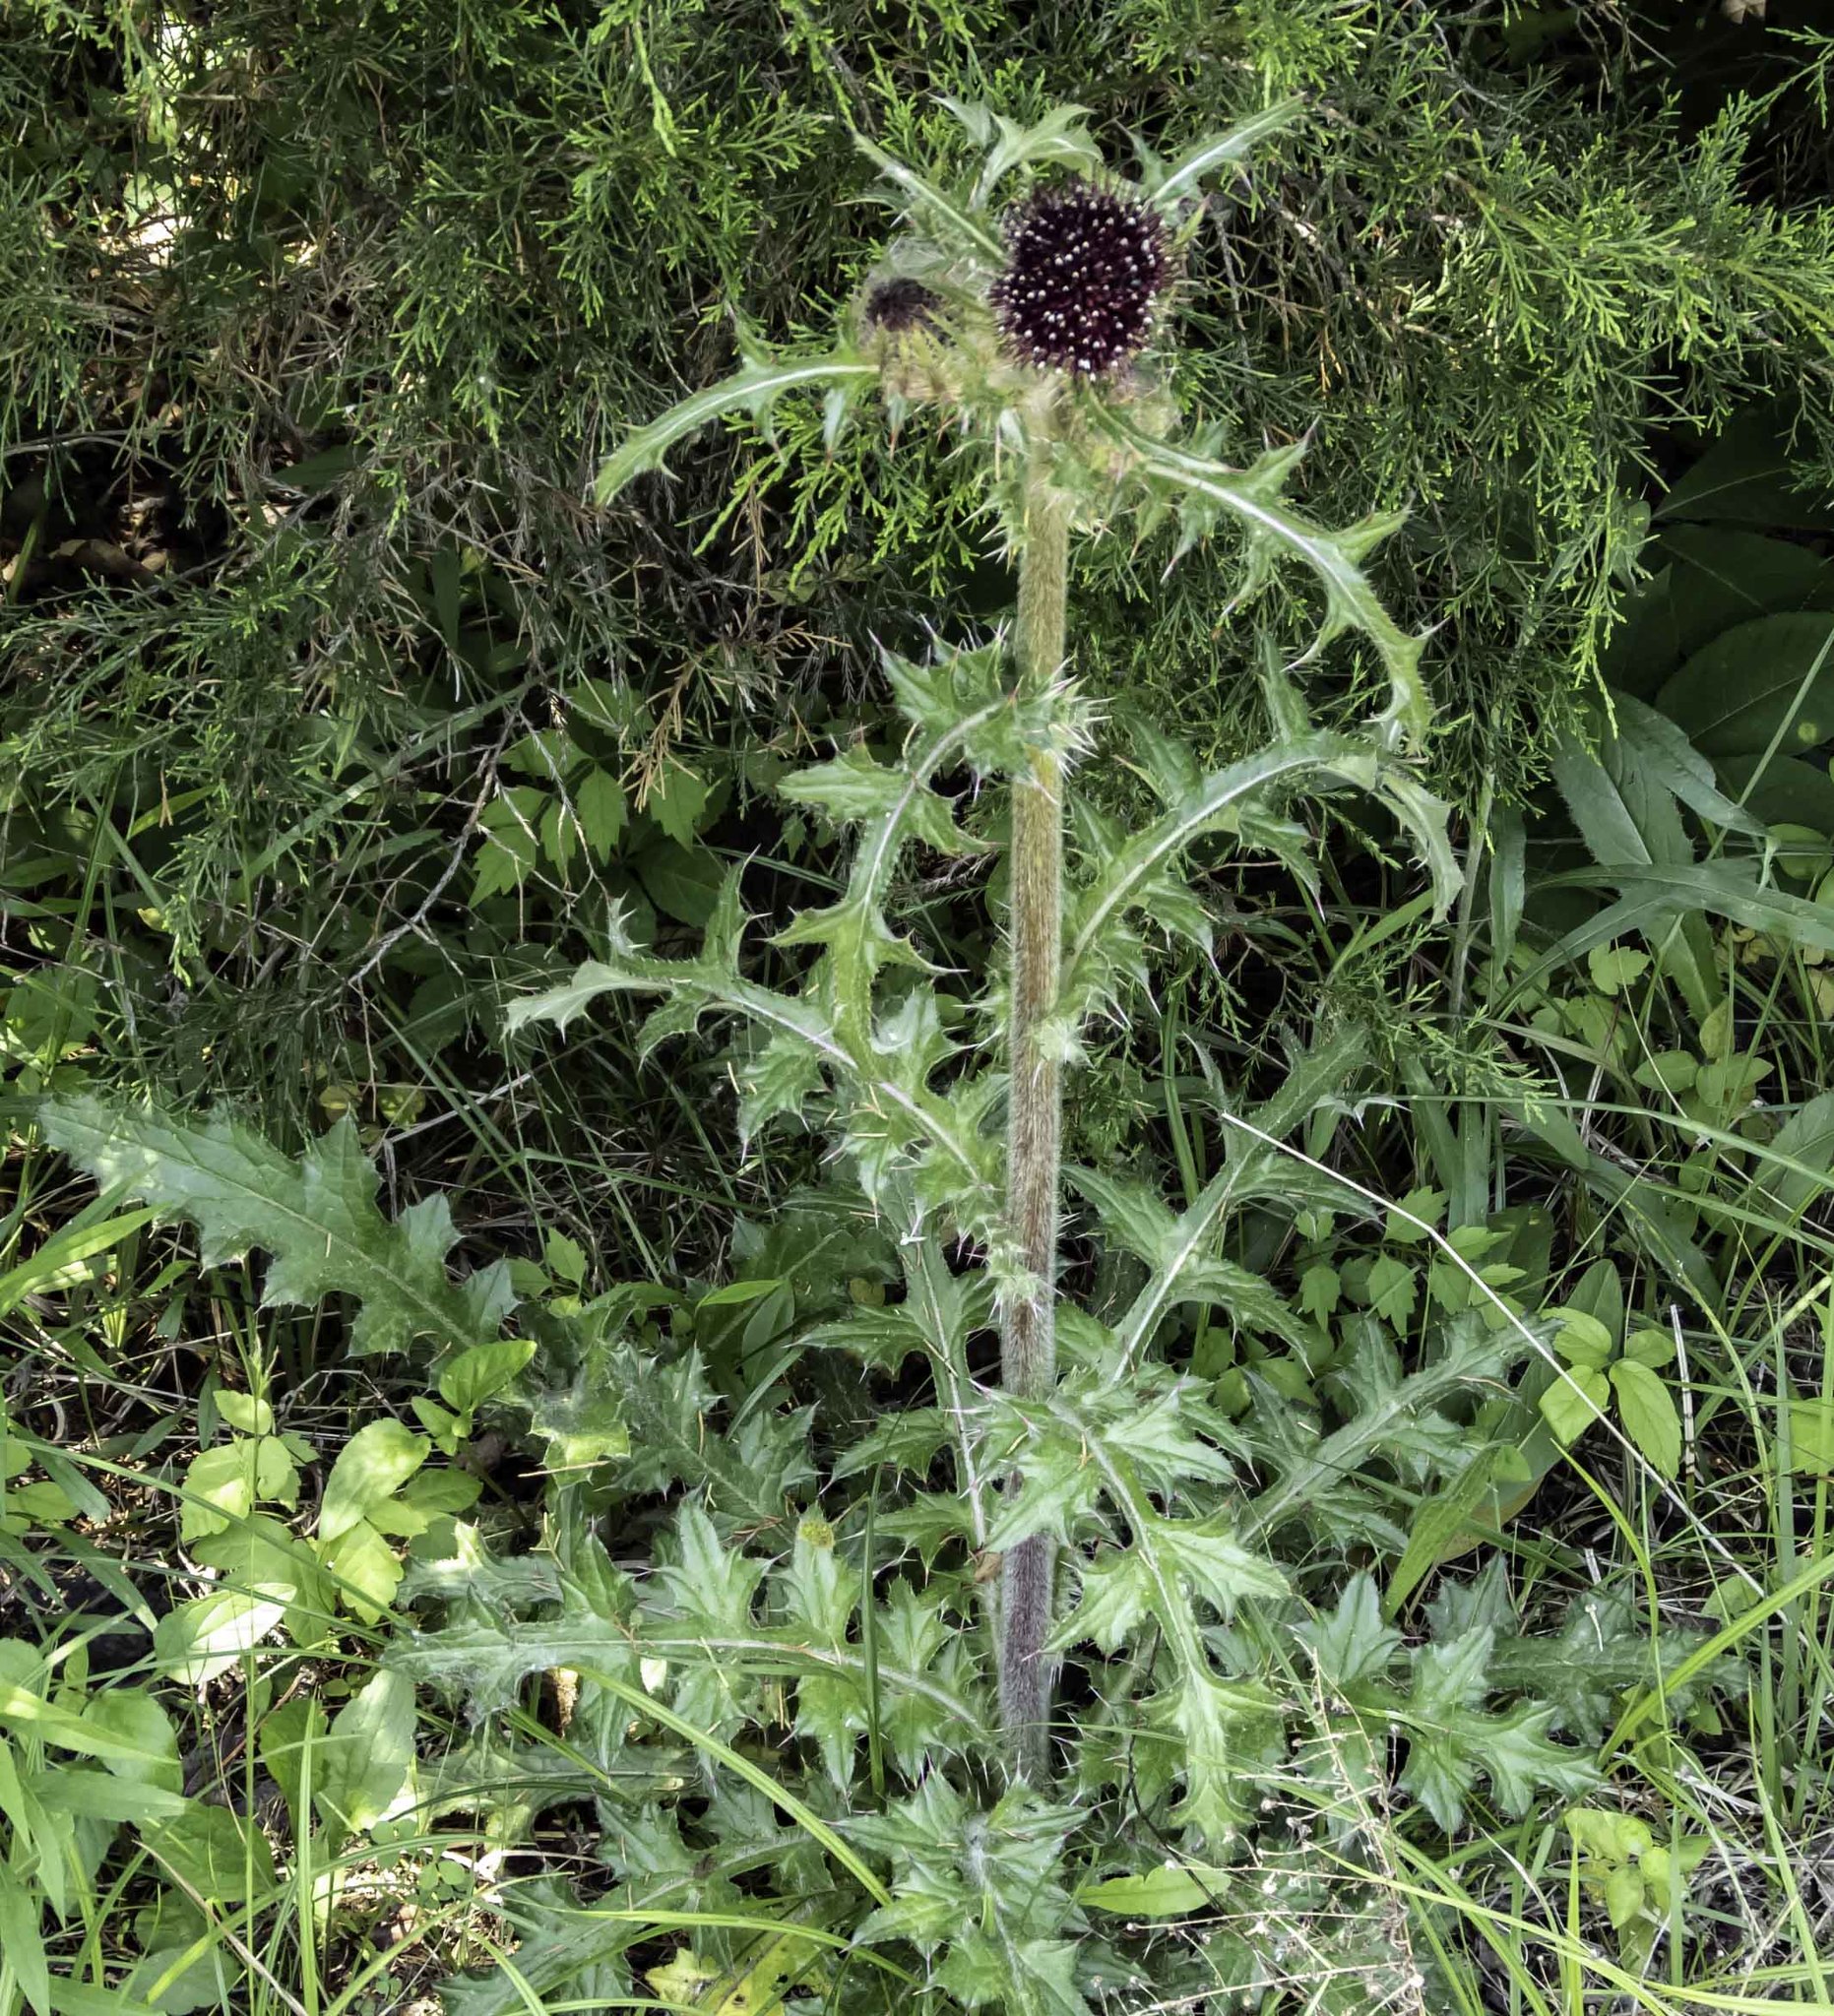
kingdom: Plantae
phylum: Tracheophyta
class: Magnoliopsida
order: Asterales
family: Asteraceae
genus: Cirsium
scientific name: Cirsium horridulum
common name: Bristly thistle
